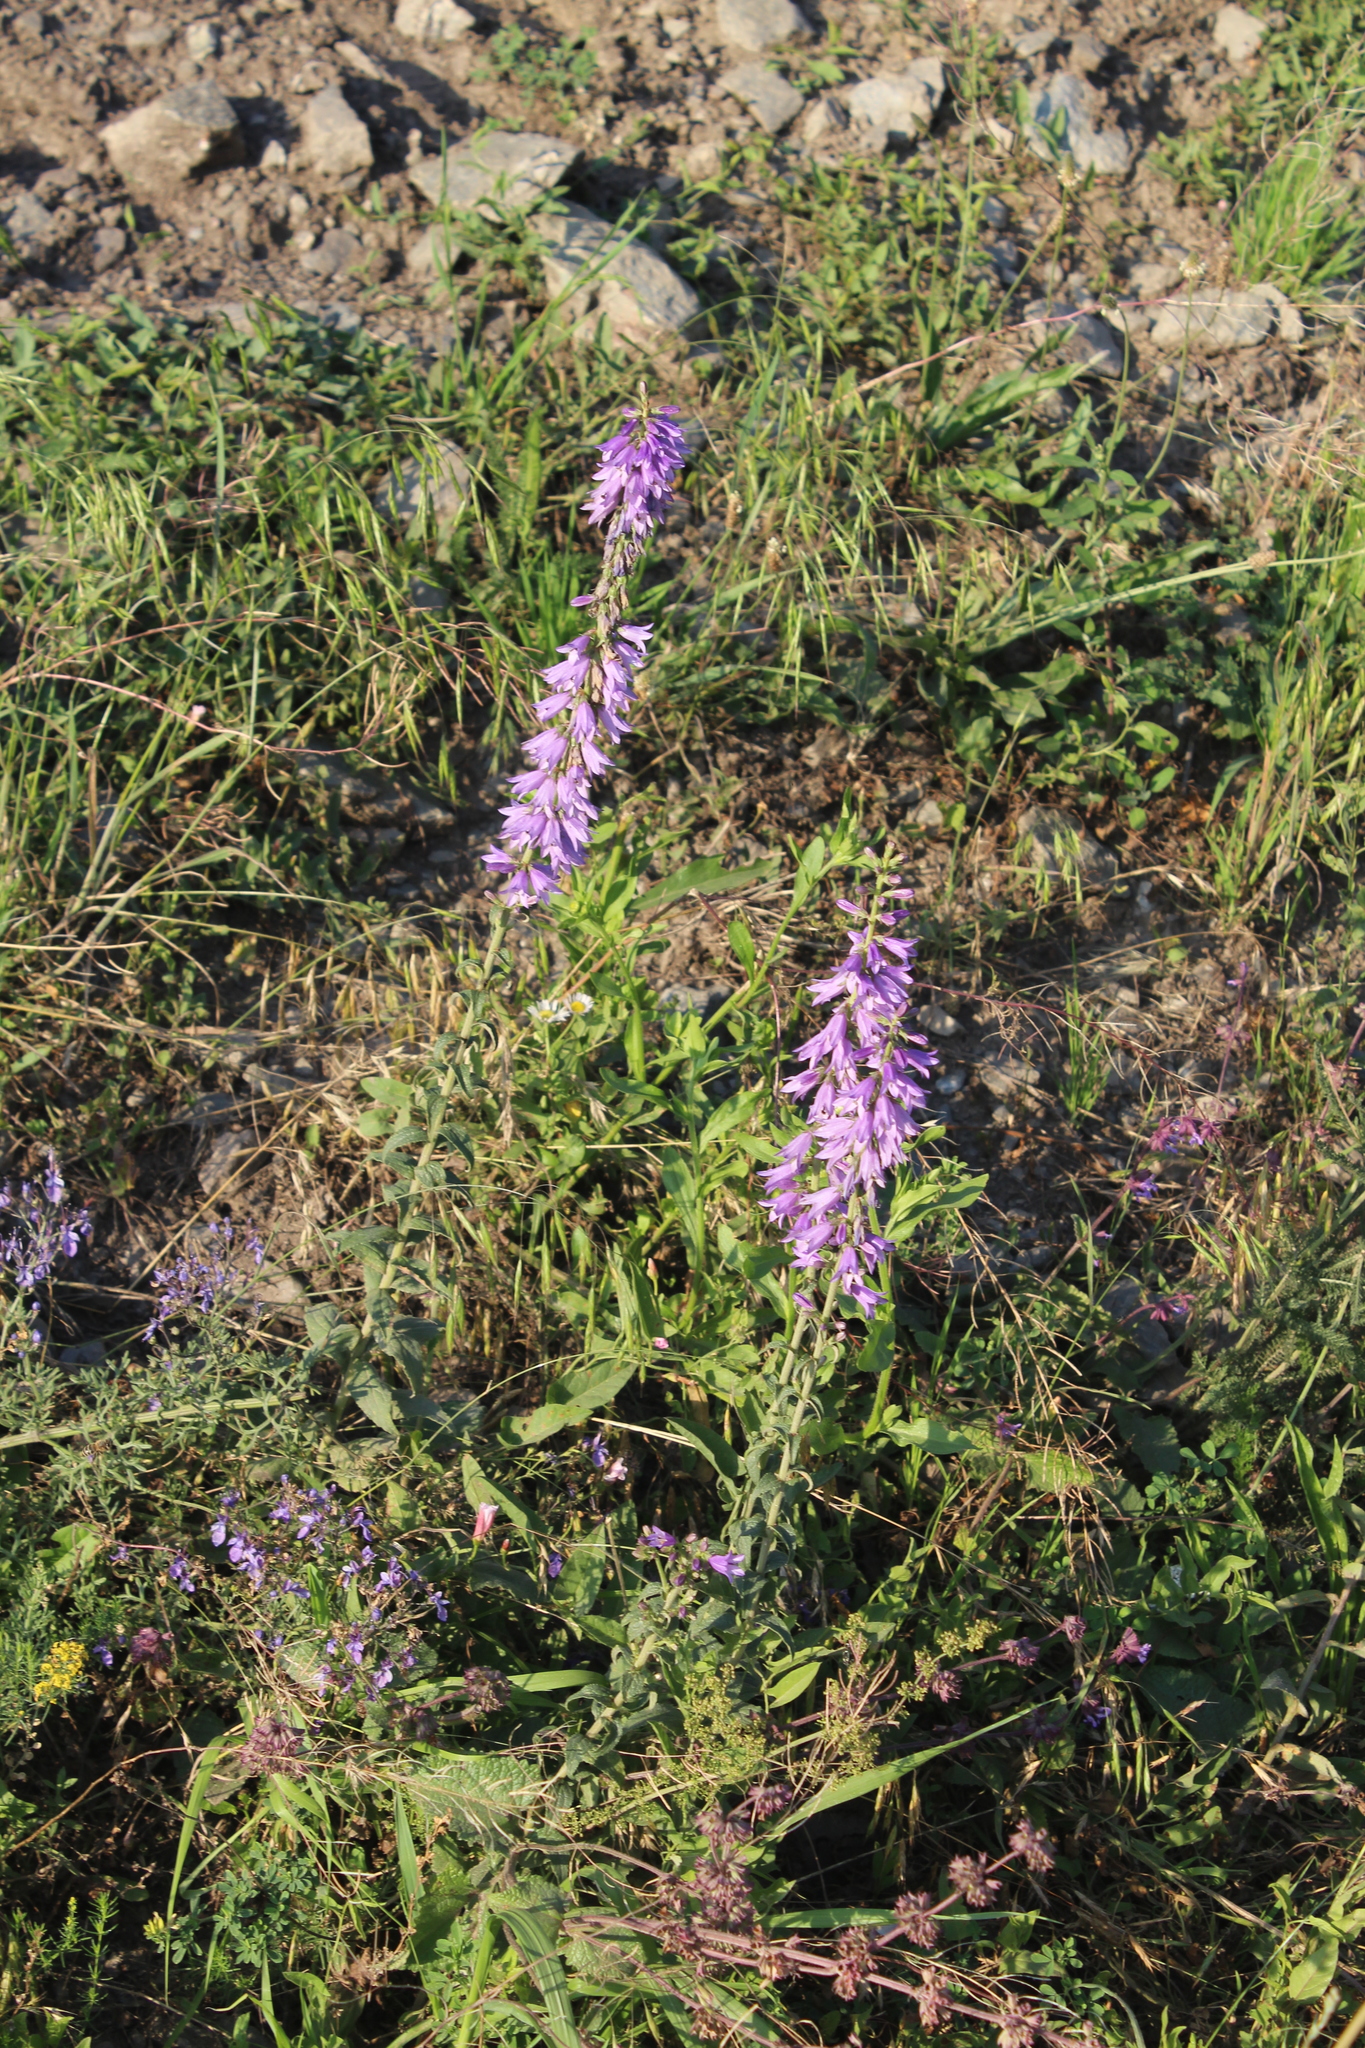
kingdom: Plantae
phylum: Tracheophyta
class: Magnoliopsida
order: Asterales
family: Campanulaceae
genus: Campanula
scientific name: Campanula bononiensis
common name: Pale bellflower
